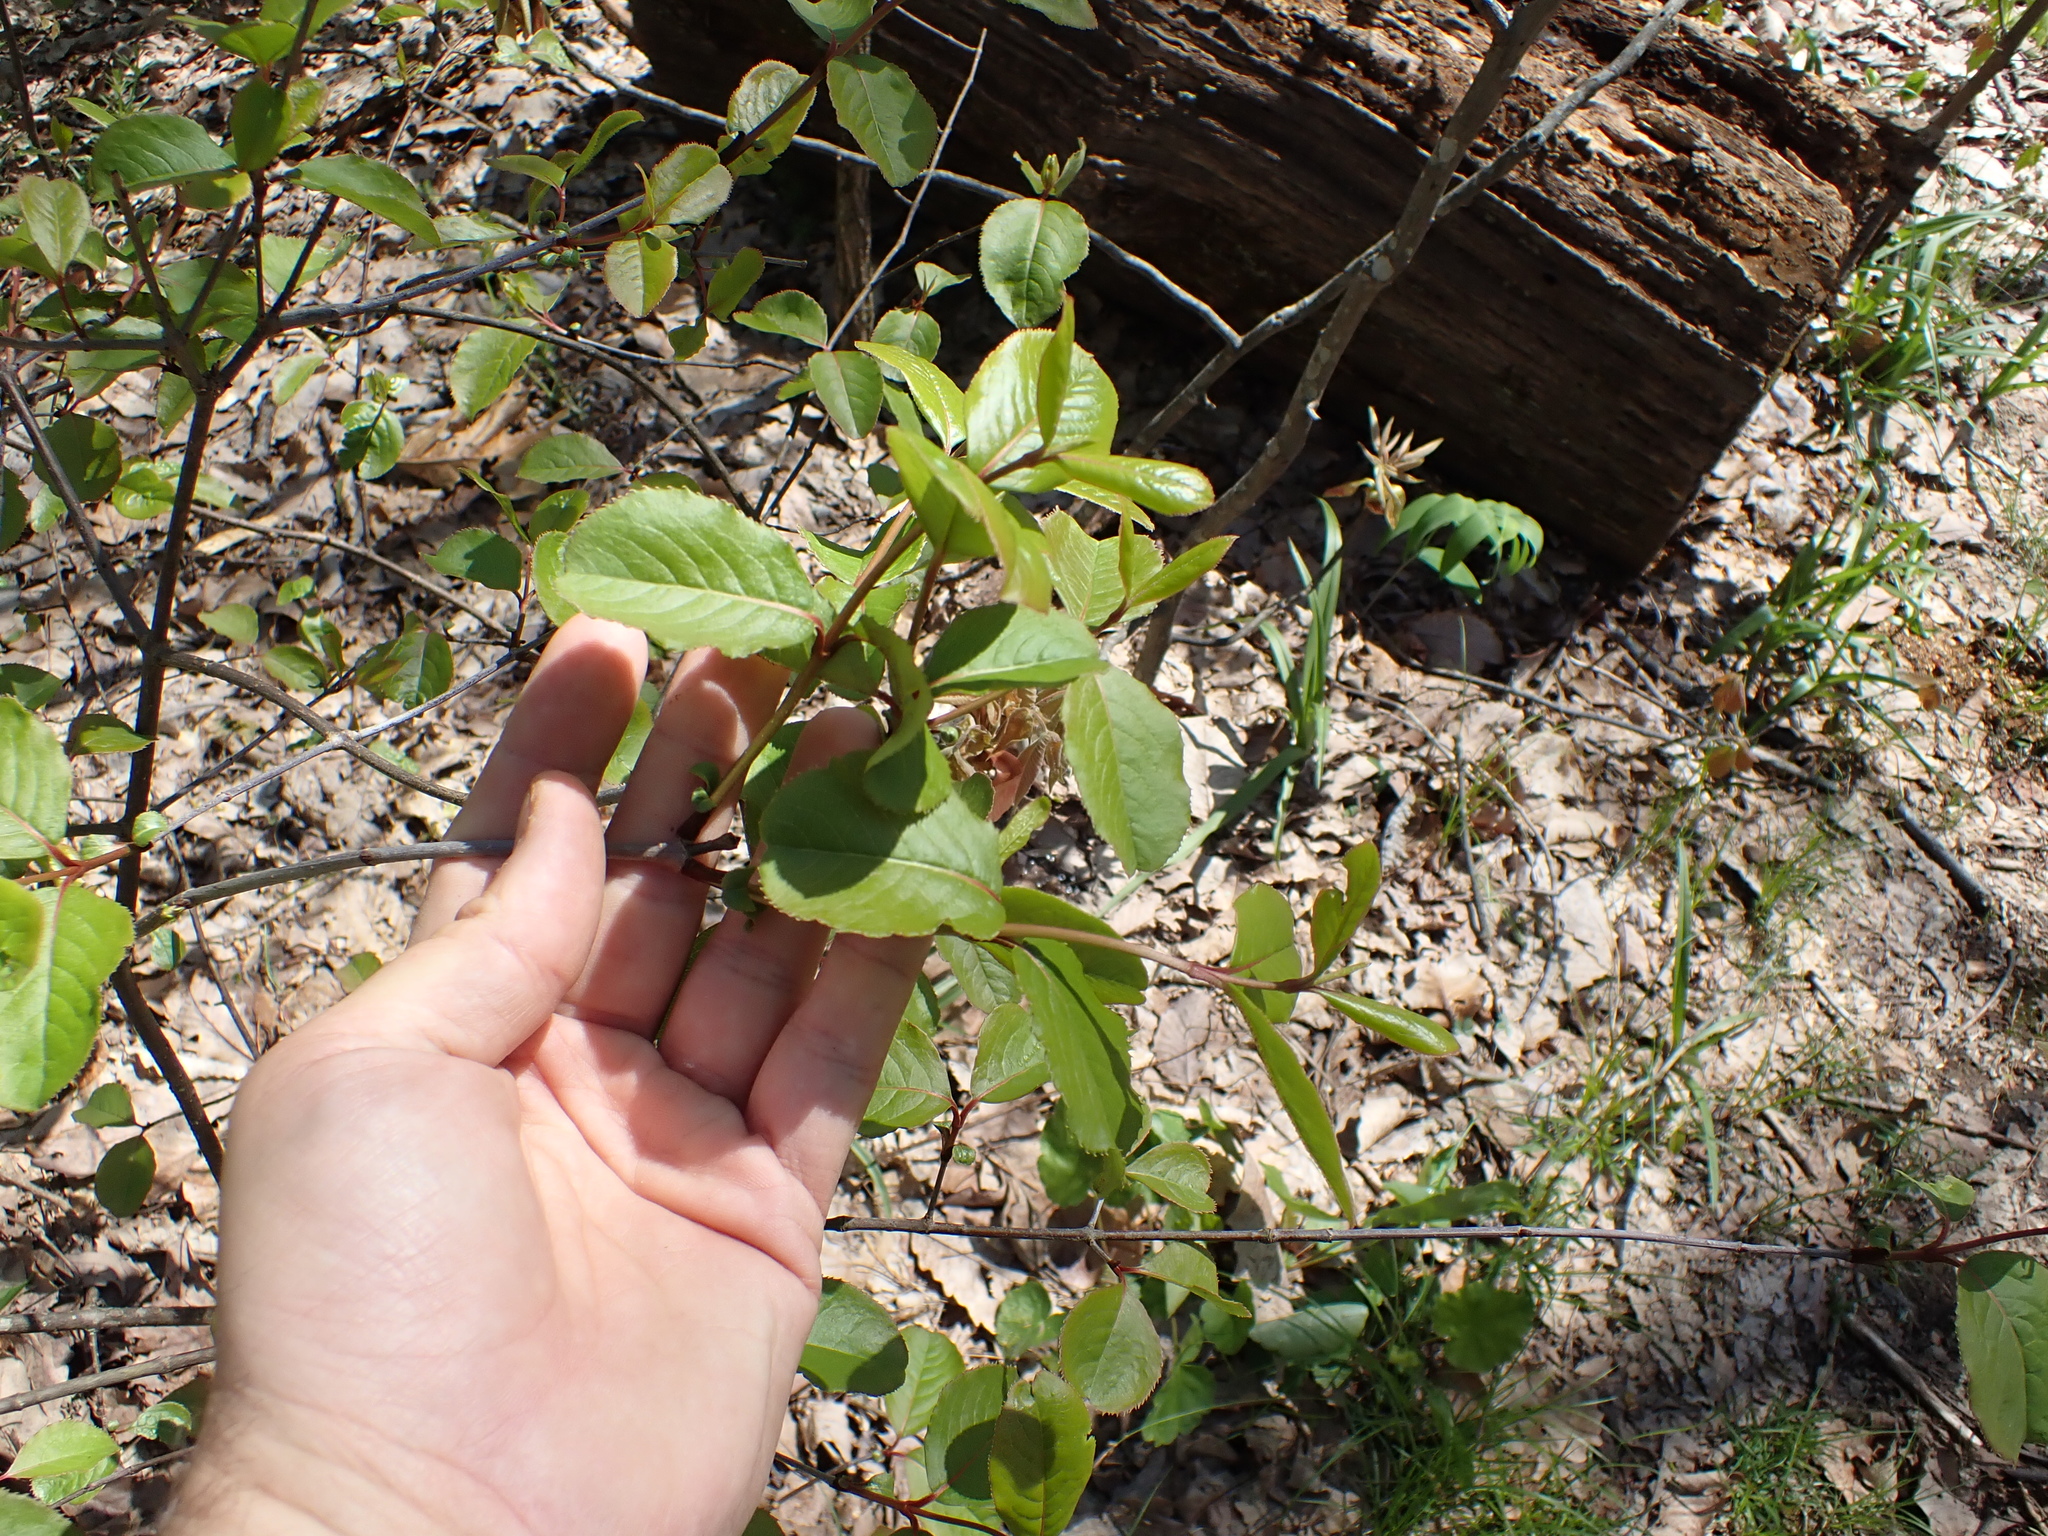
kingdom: Plantae
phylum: Tracheophyta
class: Magnoliopsida
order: Dipsacales
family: Viburnaceae
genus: Viburnum
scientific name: Viburnum rufidulum
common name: Blue haw
